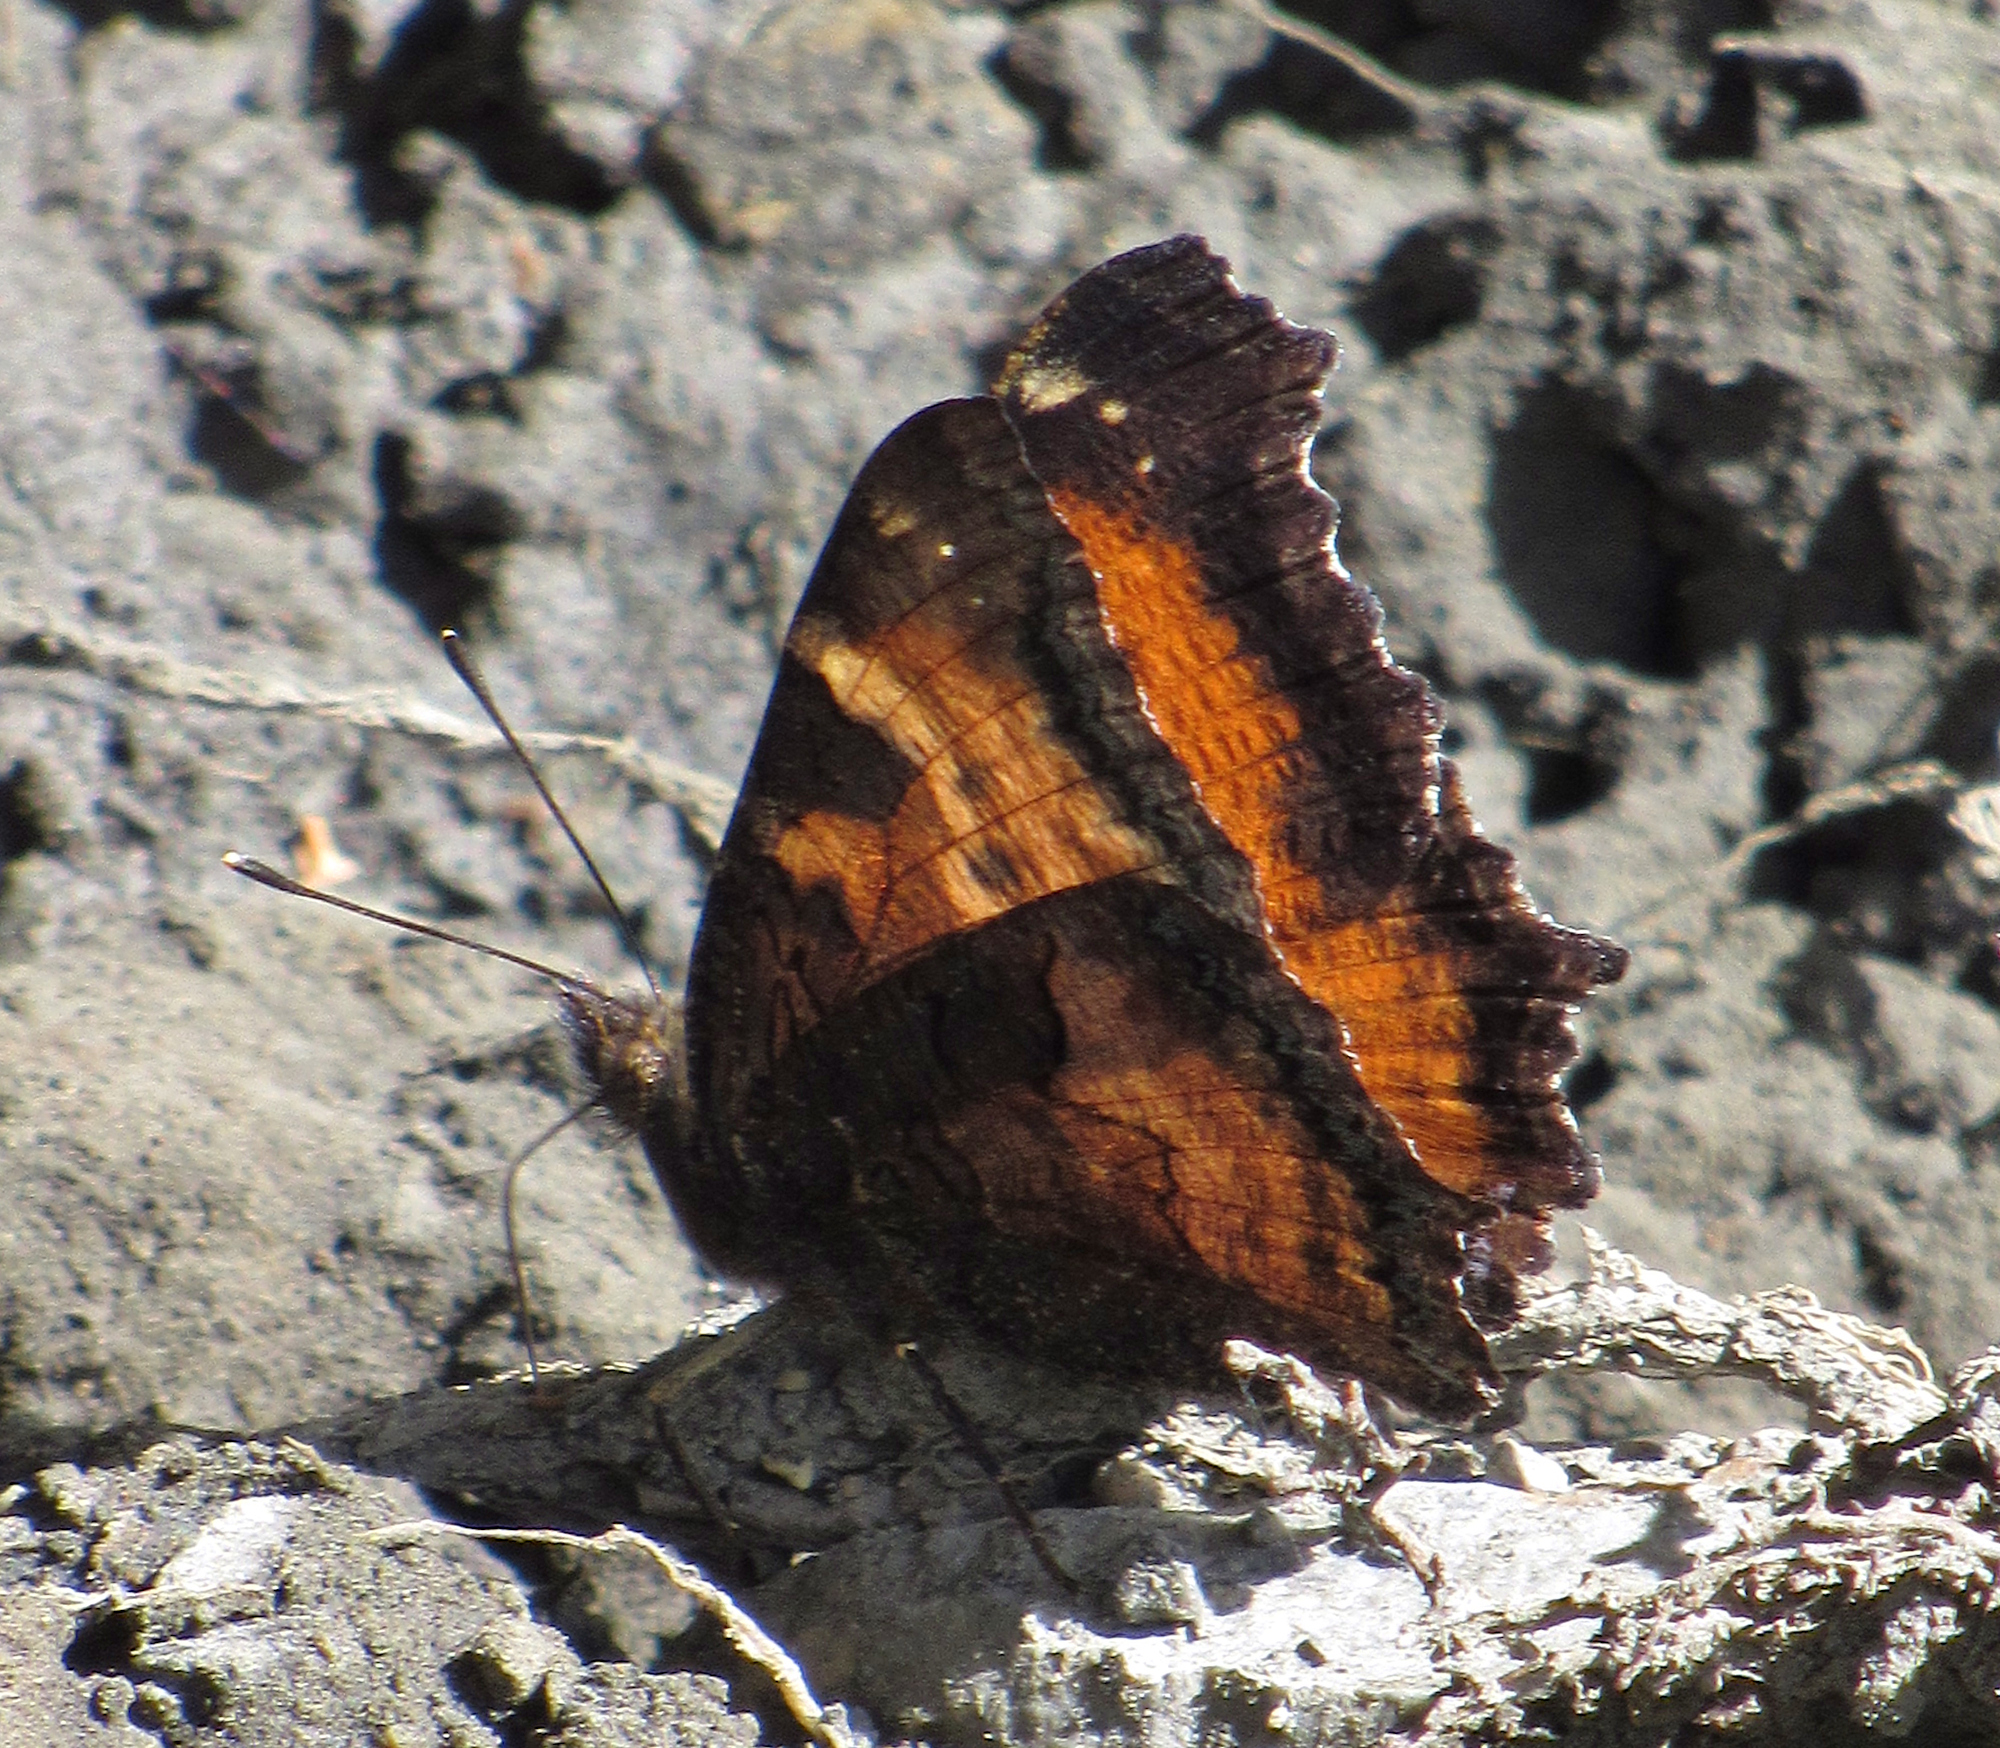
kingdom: Animalia
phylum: Arthropoda
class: Insecta
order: Lepidoptera
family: Nymphalidae
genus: Nymphalis
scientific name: Nymphalis californica
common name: California tortoiseshell
